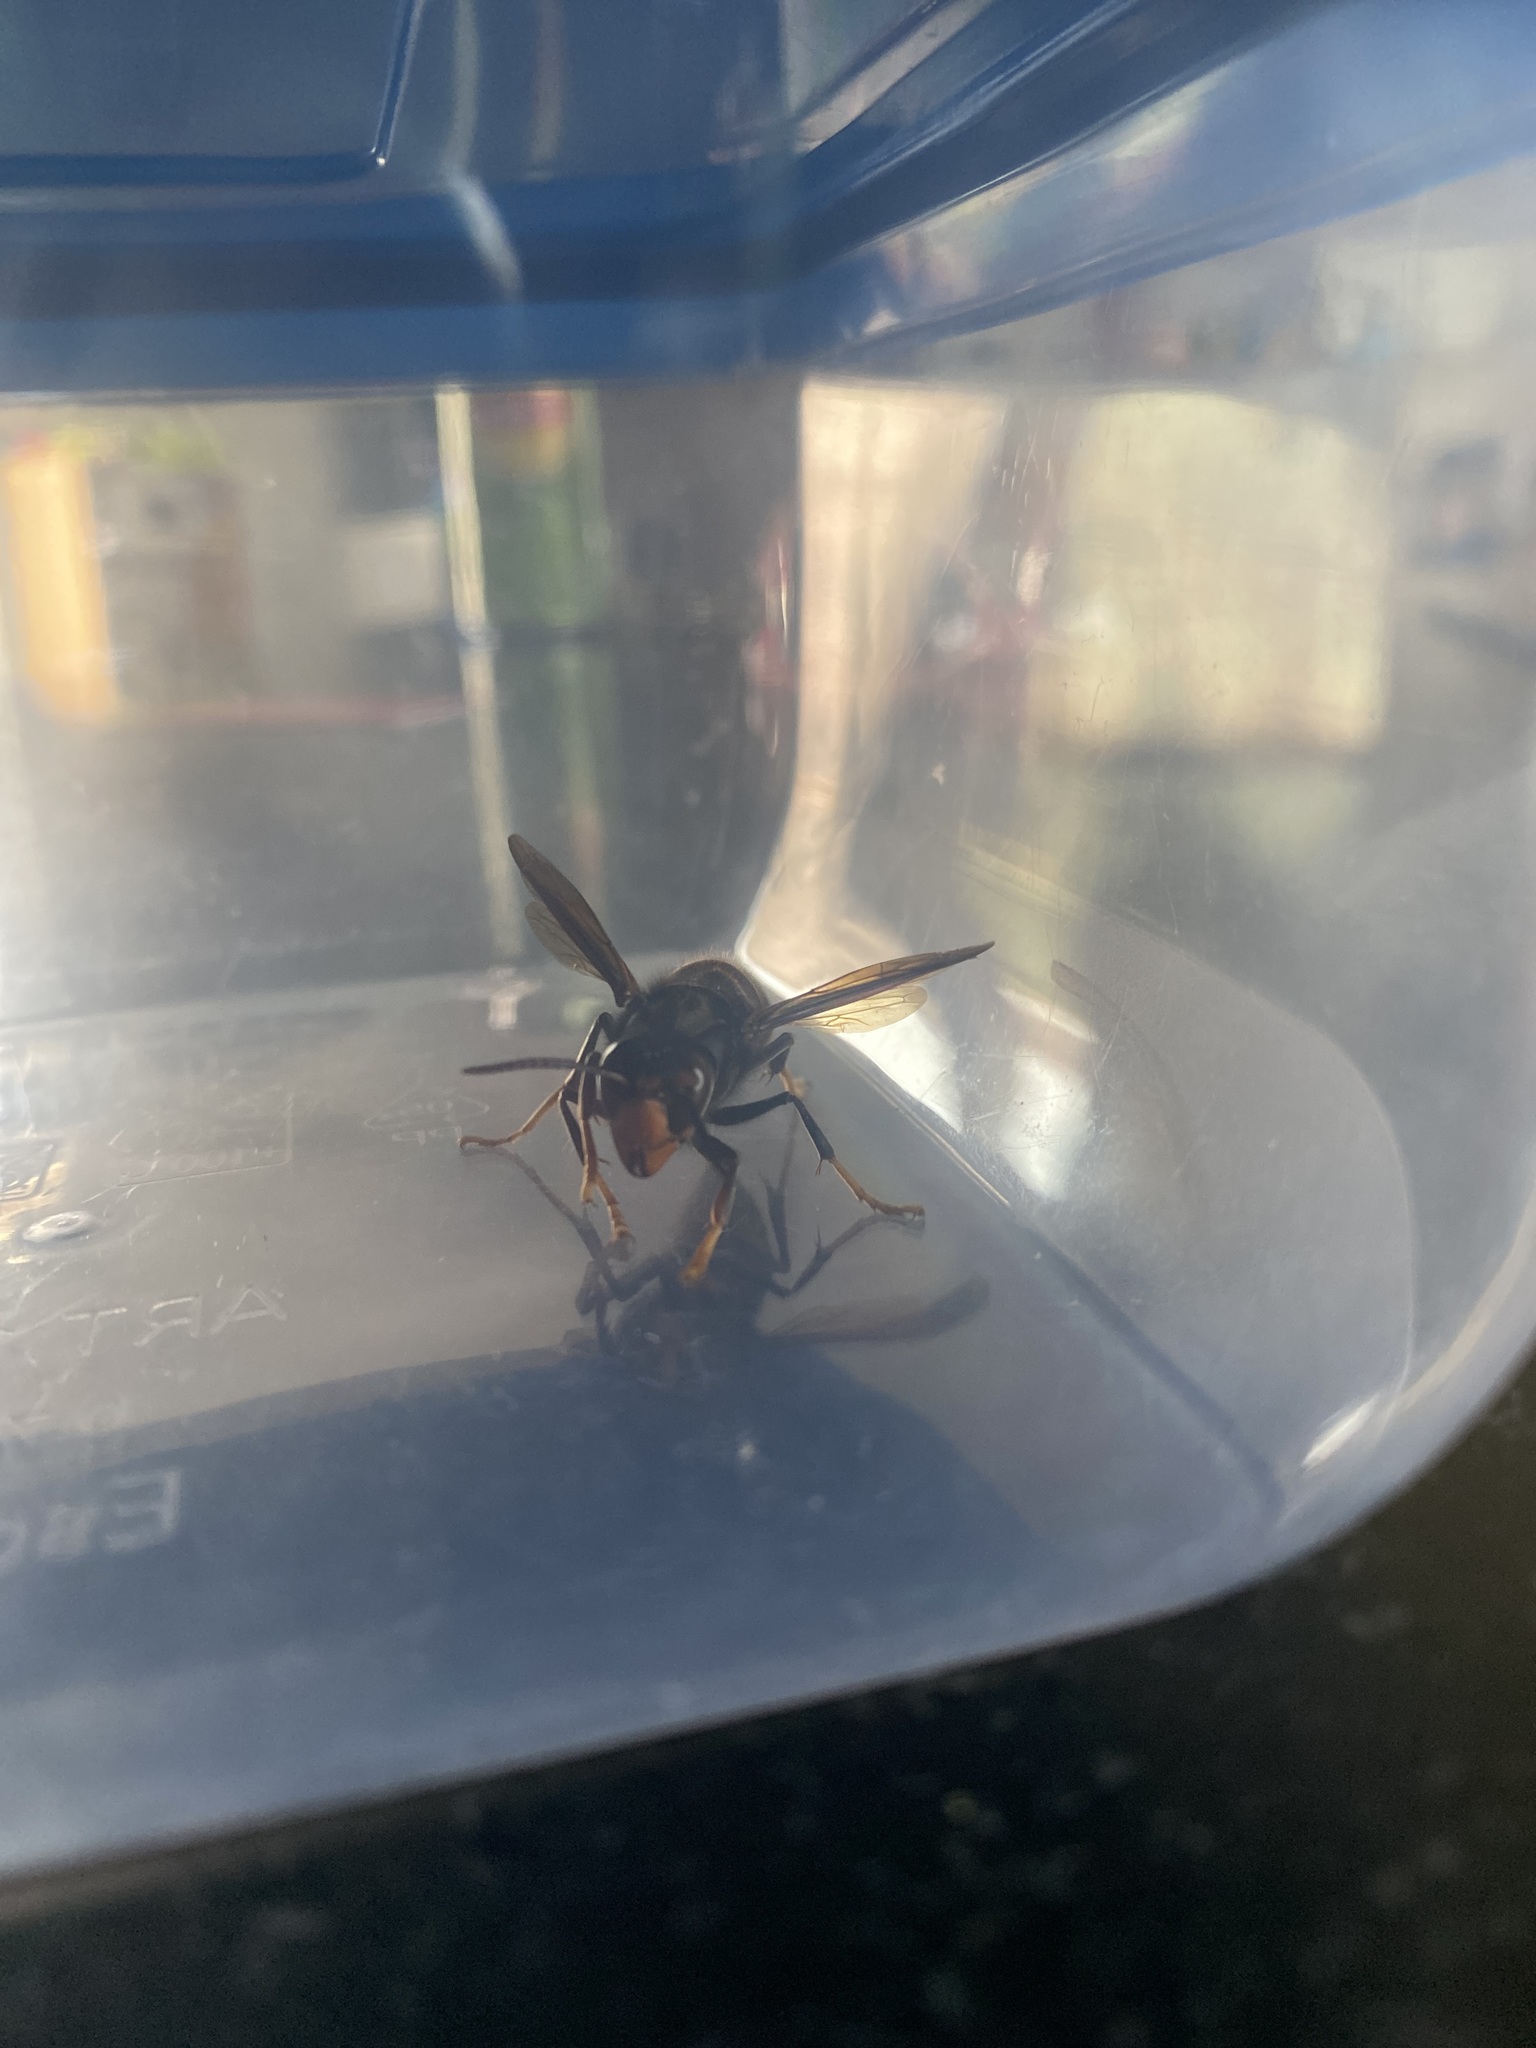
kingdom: Animalia
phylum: Arthropoda
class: Insecta
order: Hymenoptera
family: Vespidae
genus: Vespa
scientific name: Vespa velutina
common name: Asian hornet
